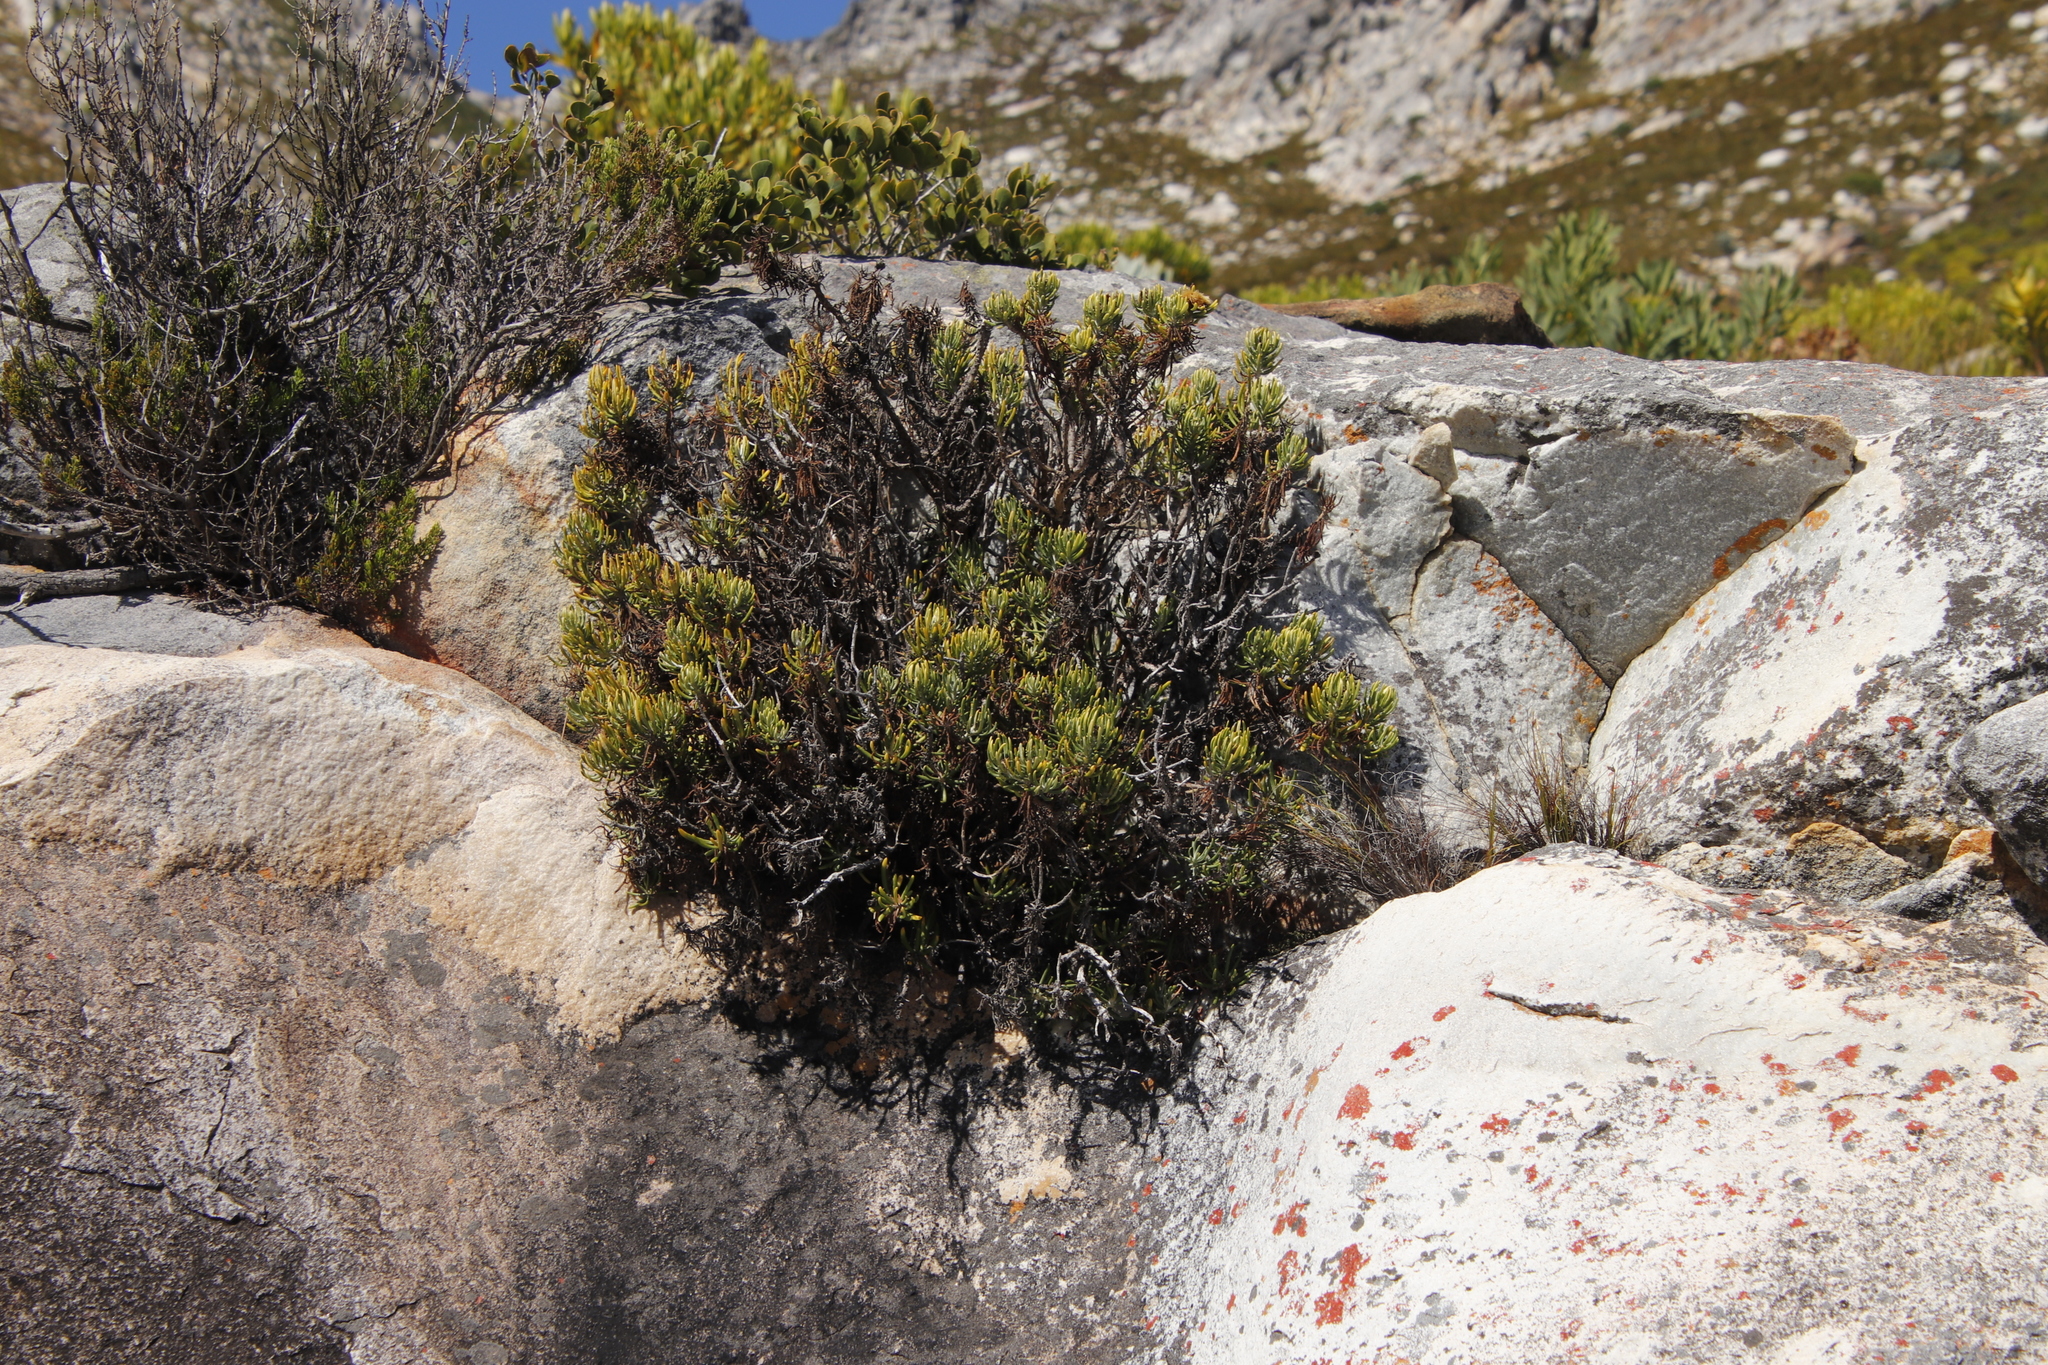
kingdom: Plantae
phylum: Tracheophyta
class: Magnoliopsida
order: Asterales
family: Asteraceae
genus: Heterolepis
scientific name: Heterolepis aliena
